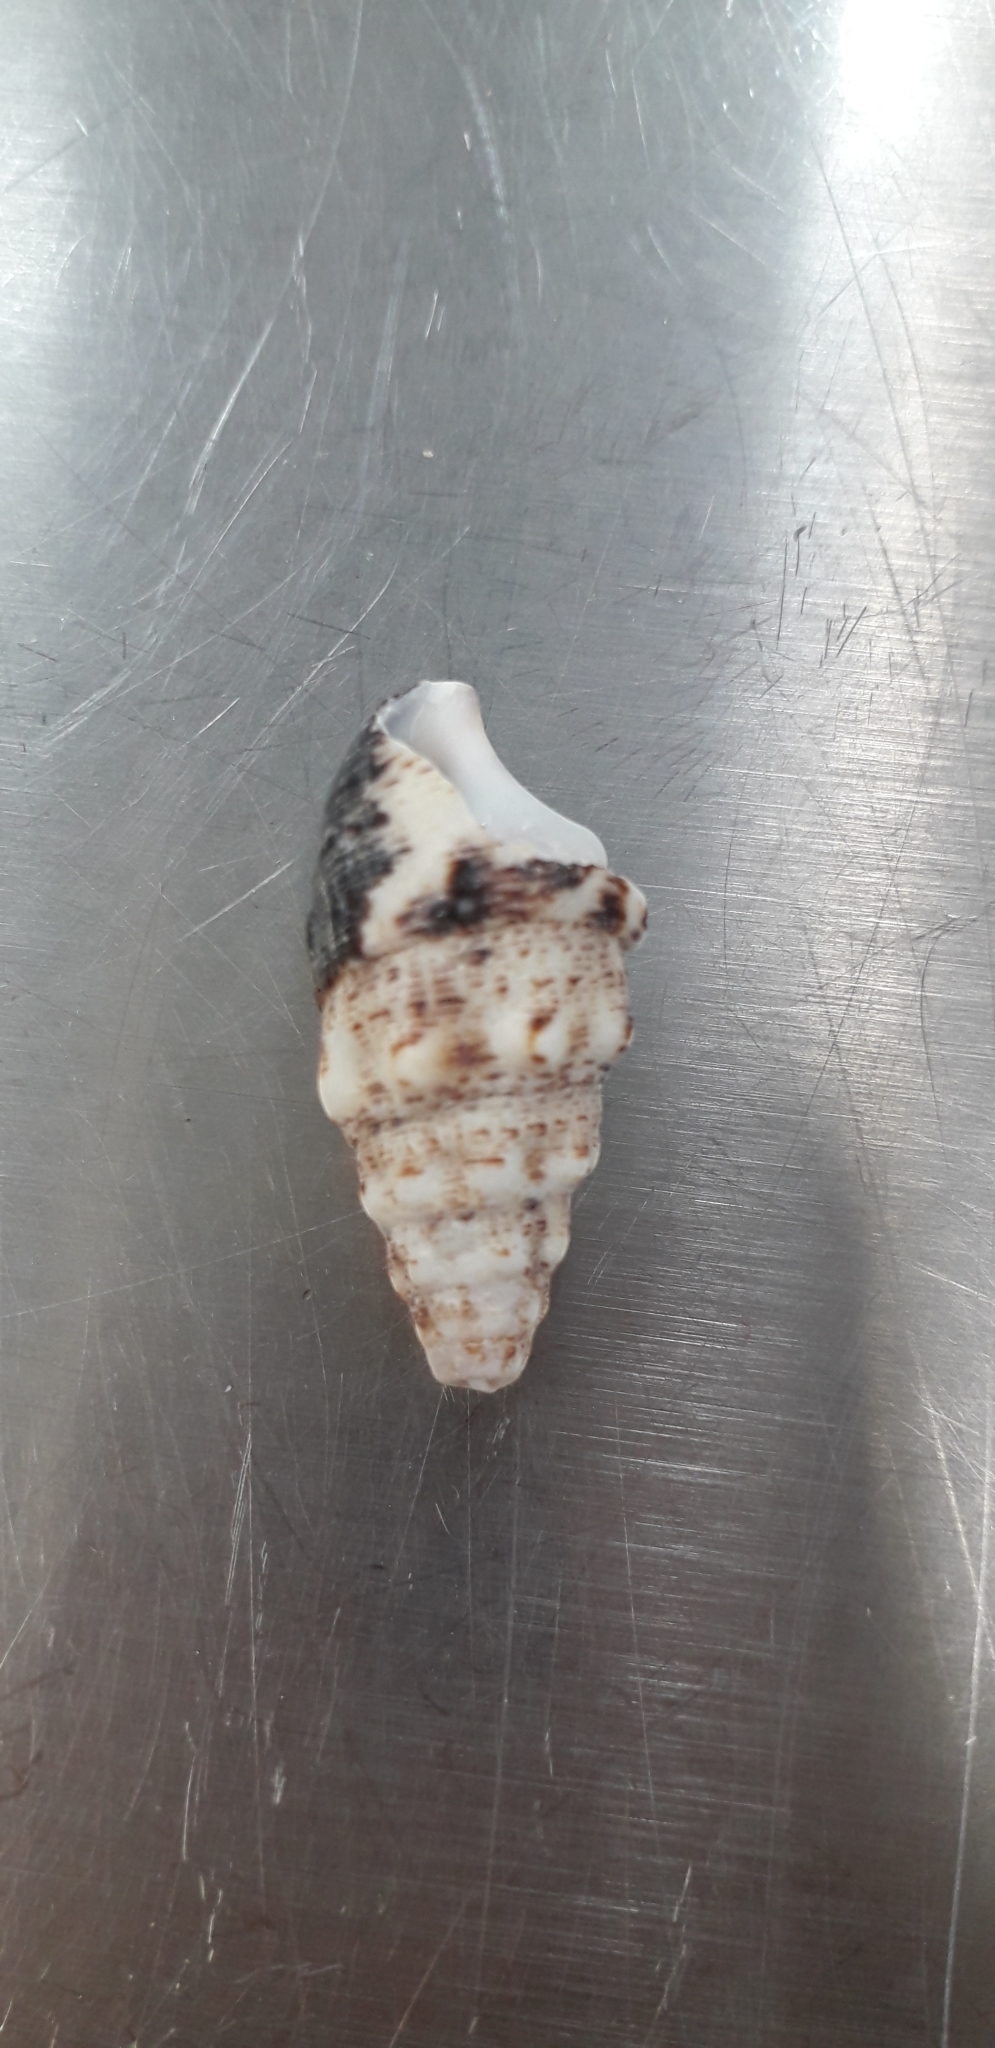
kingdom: Animalia
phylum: Mollusca
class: Gastropoda
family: Cerithiidae
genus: Cerithium
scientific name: Cerithium maculosum
